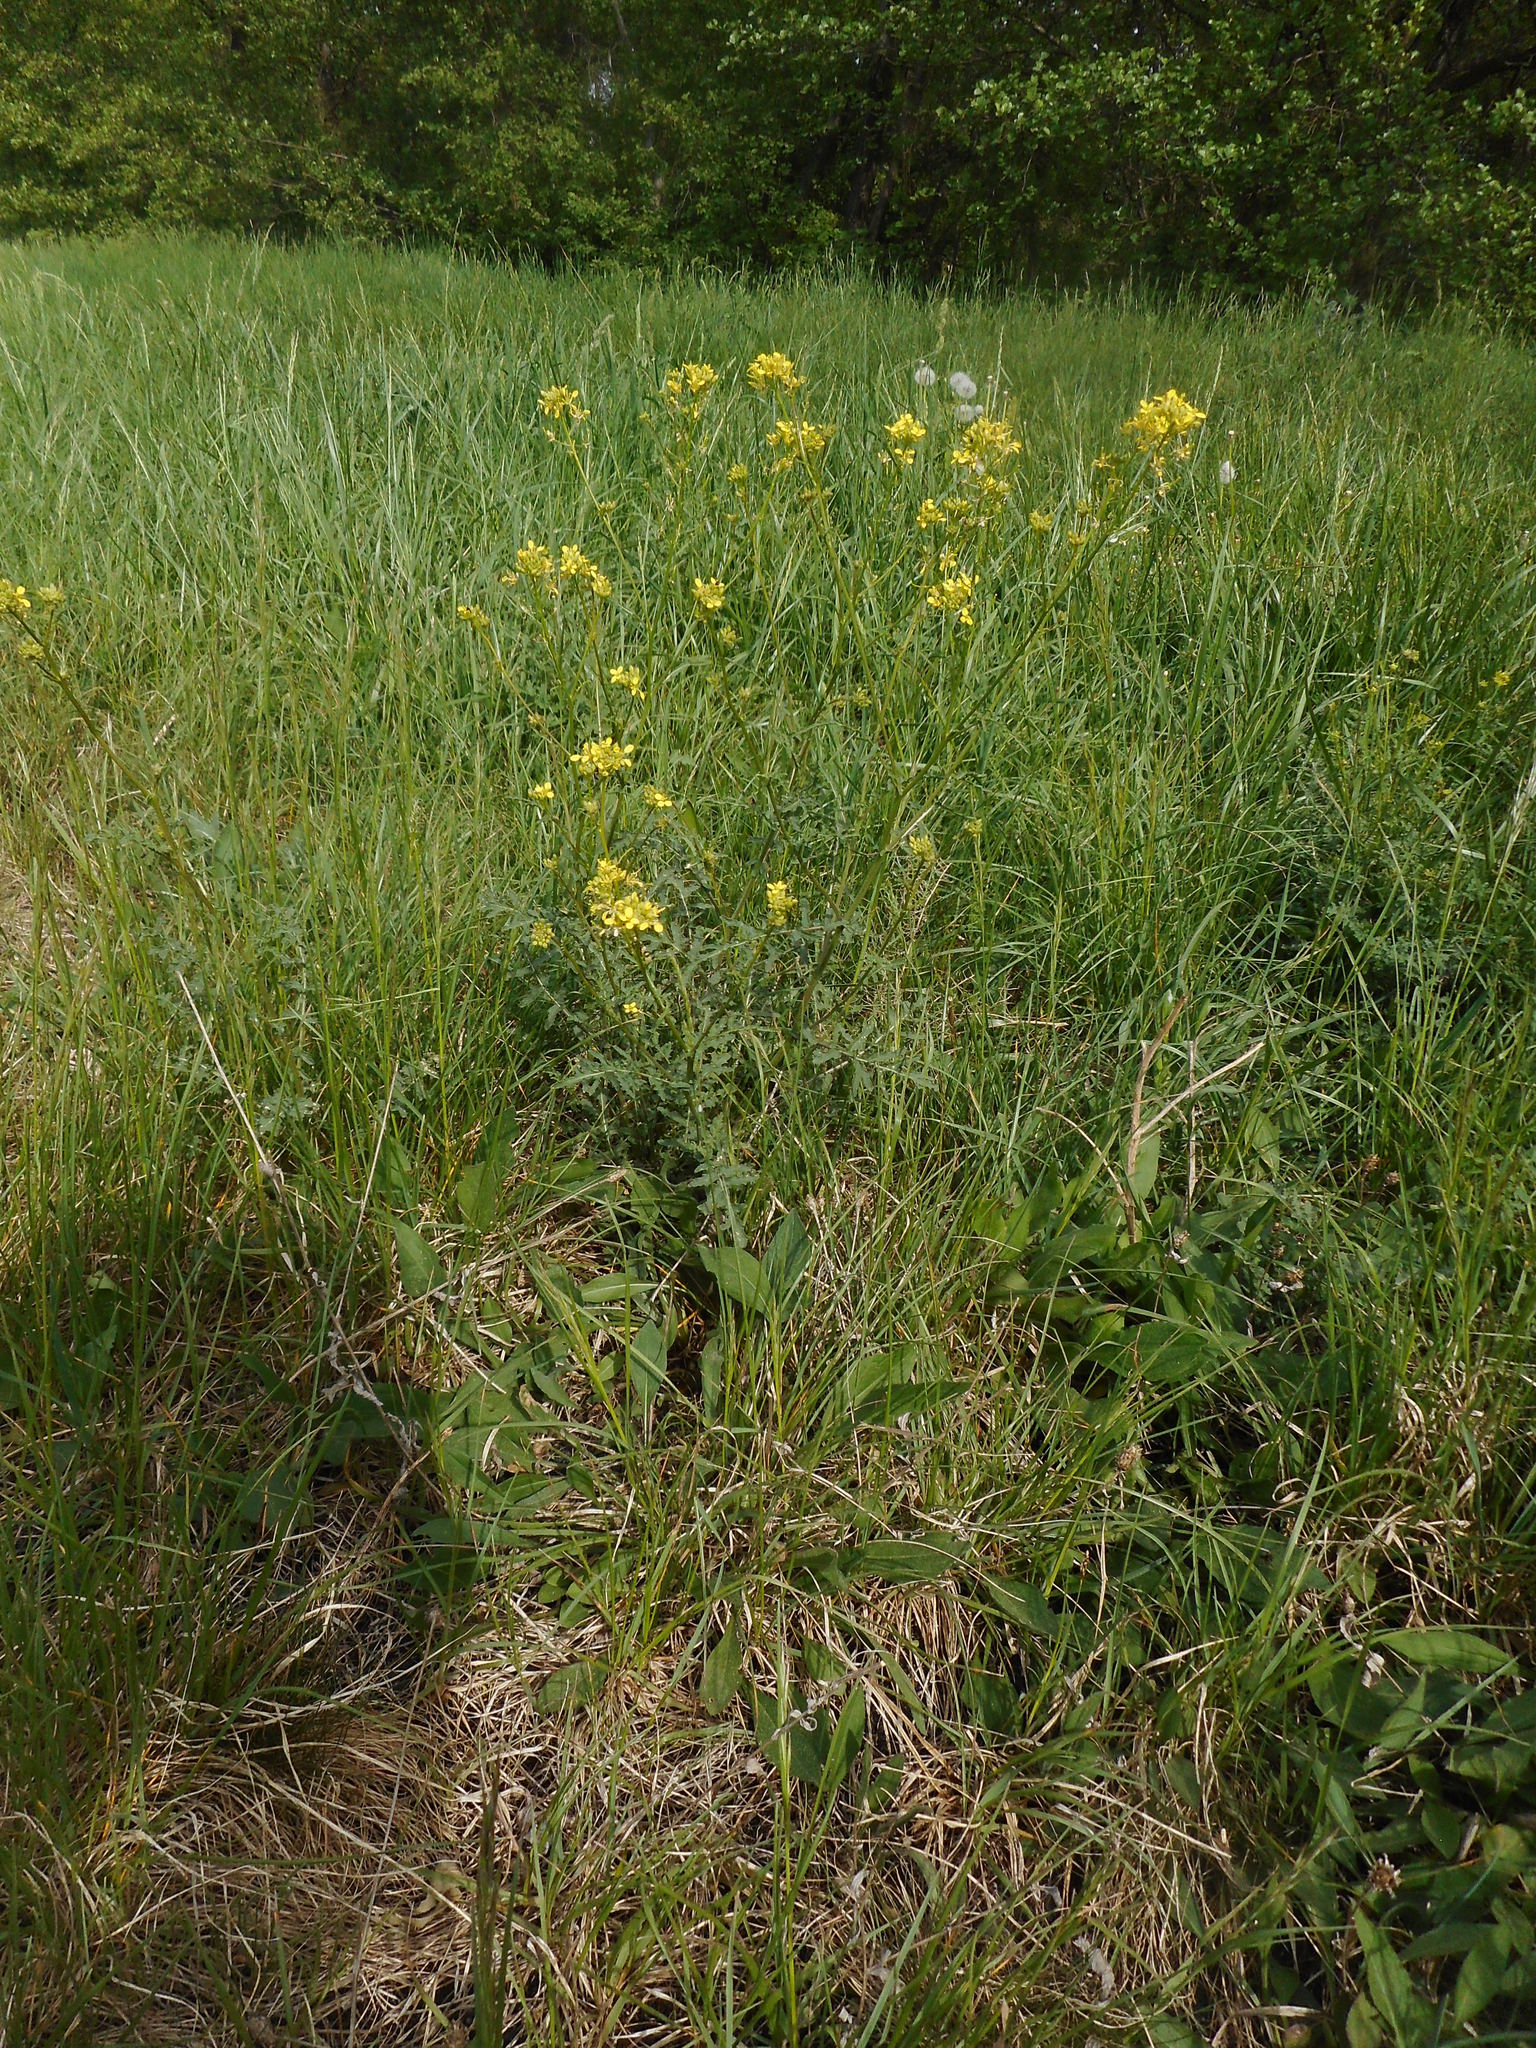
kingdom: Plantae
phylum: Tracheophyta
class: Magnoliopsida
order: Brassicales
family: Brassicaceae
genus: Barbarea
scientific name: Barbarea vulgaris
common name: Cressy-greens
